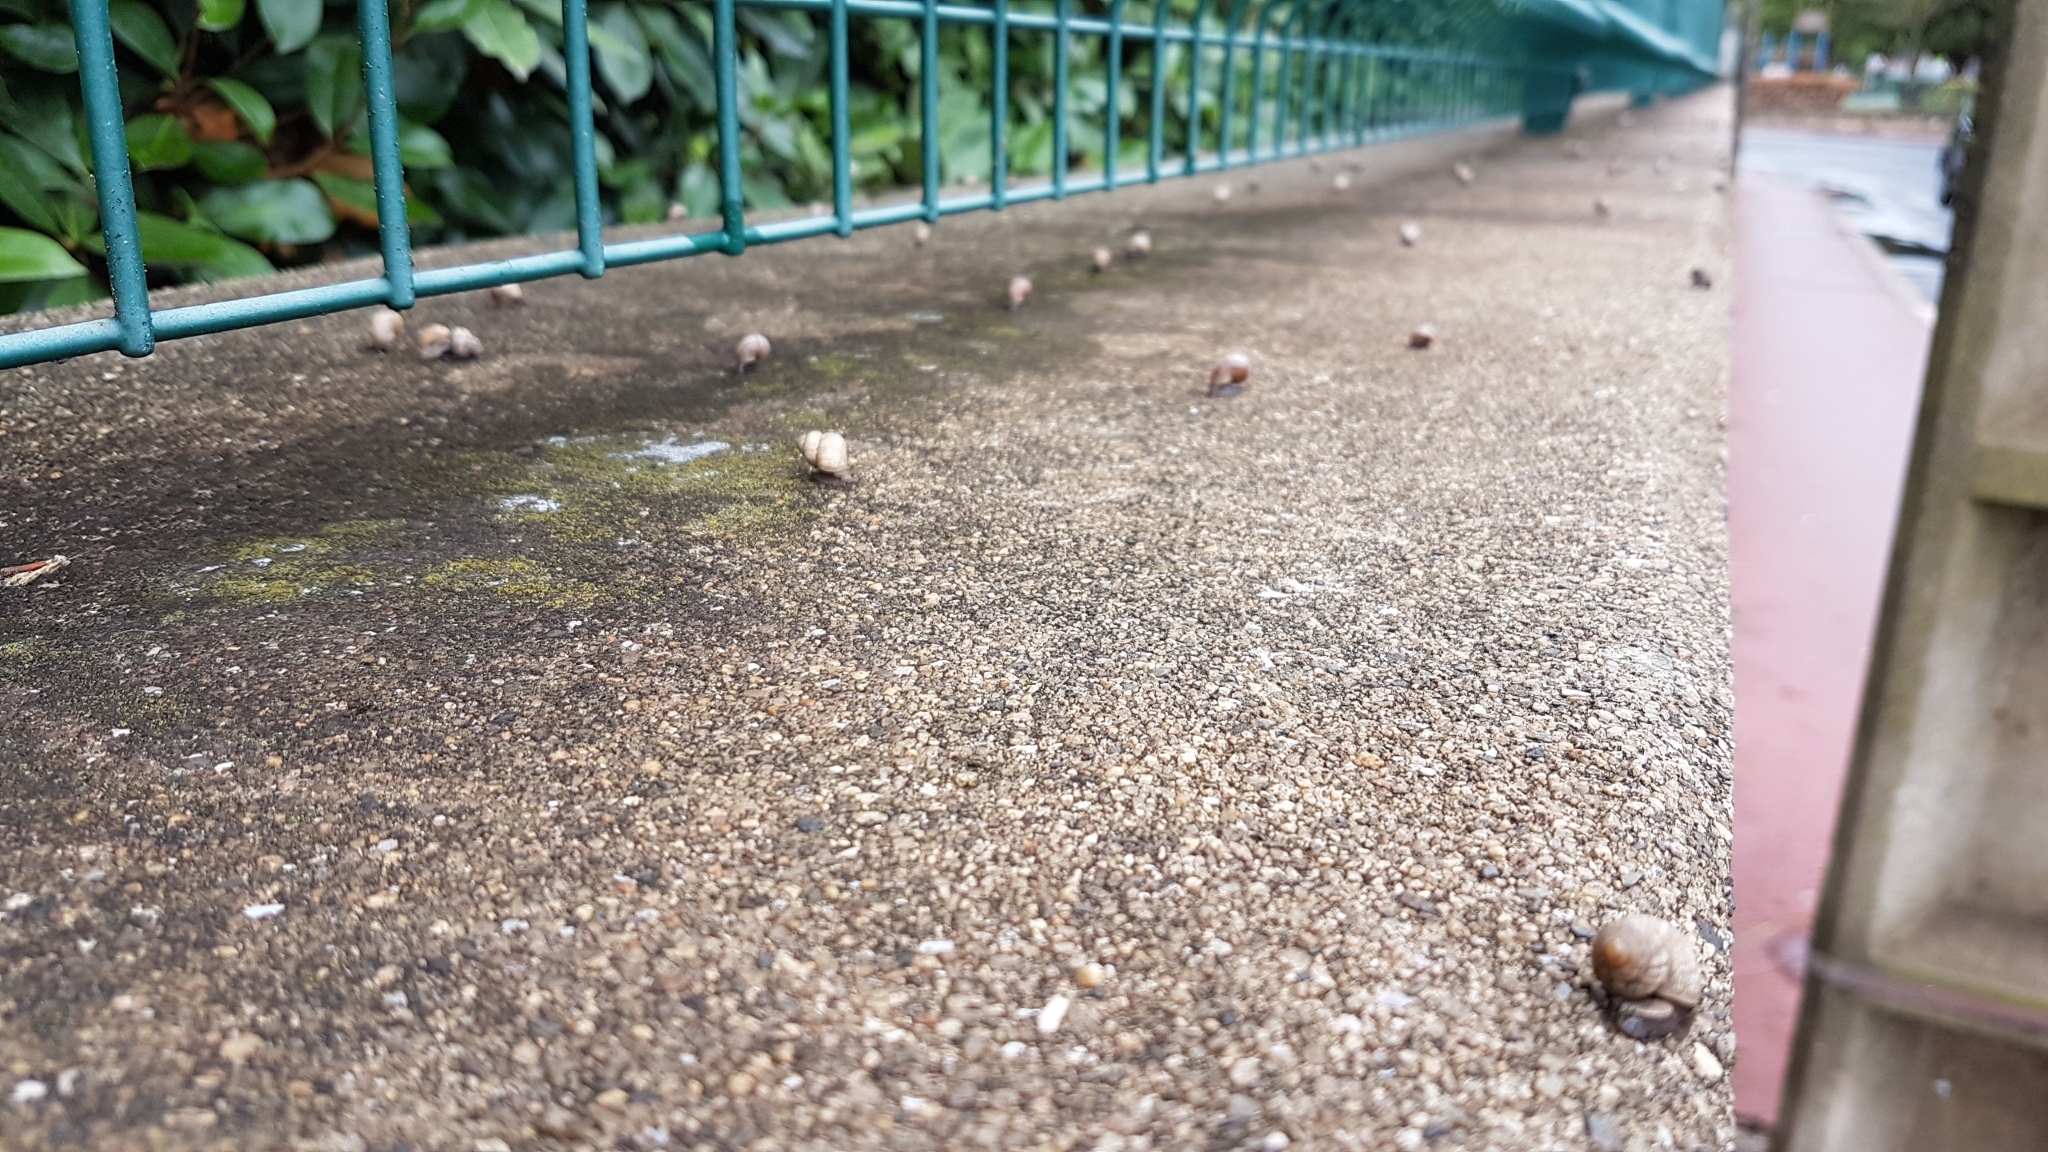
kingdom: Animalia
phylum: Mollusca
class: Gastropoda
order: Littorinimorpha
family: Pomatiidae
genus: Pomatias
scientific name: Pomatias elegans
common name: Red-mouthed snail
